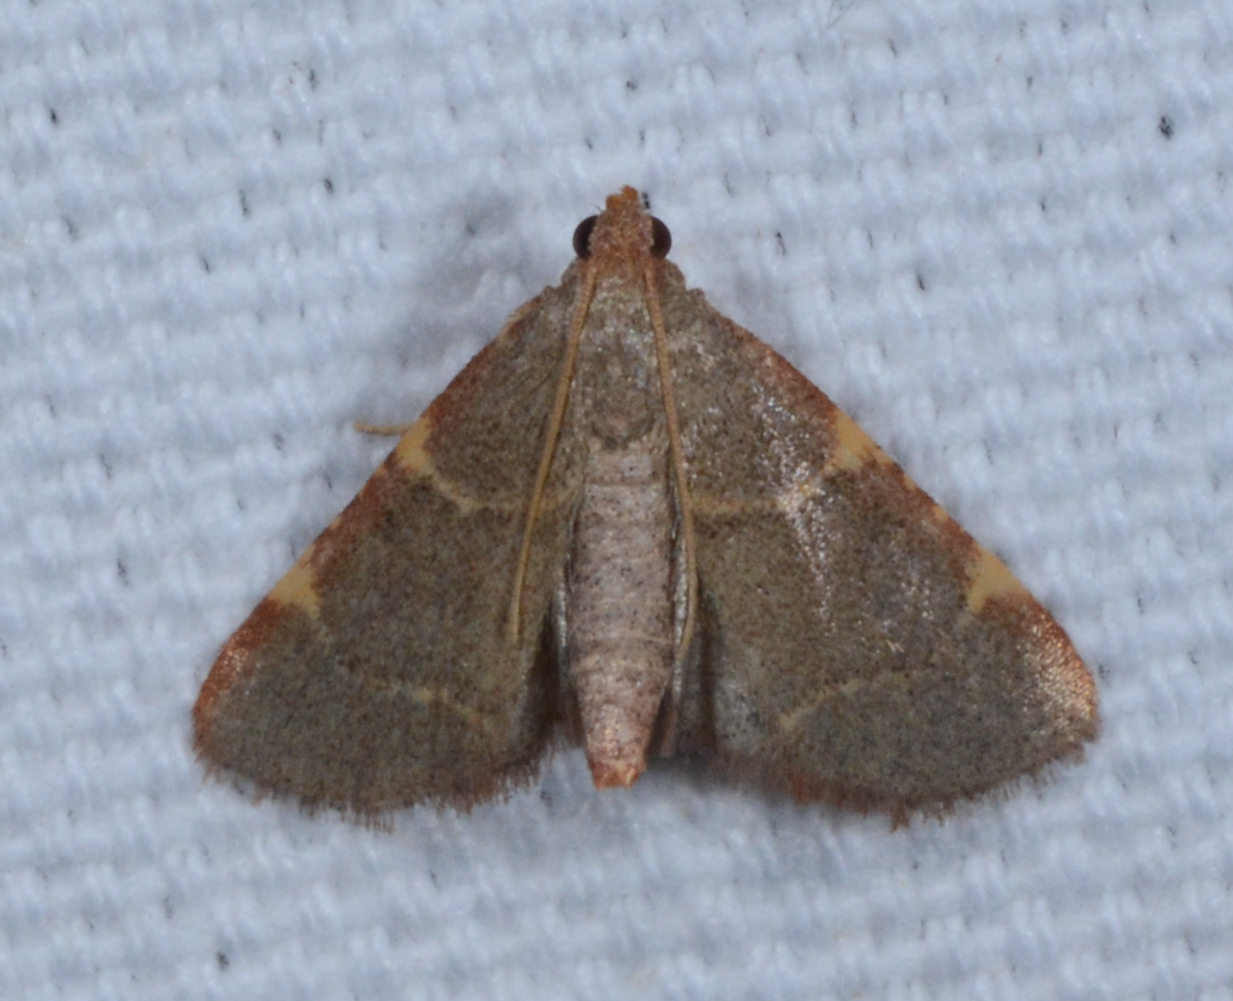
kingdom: Animalia
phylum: Arthropoda
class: Insecta
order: Lepidoptera
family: Pyralidae
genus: Hypsopygia
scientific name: Hypsopygia binodulalis
